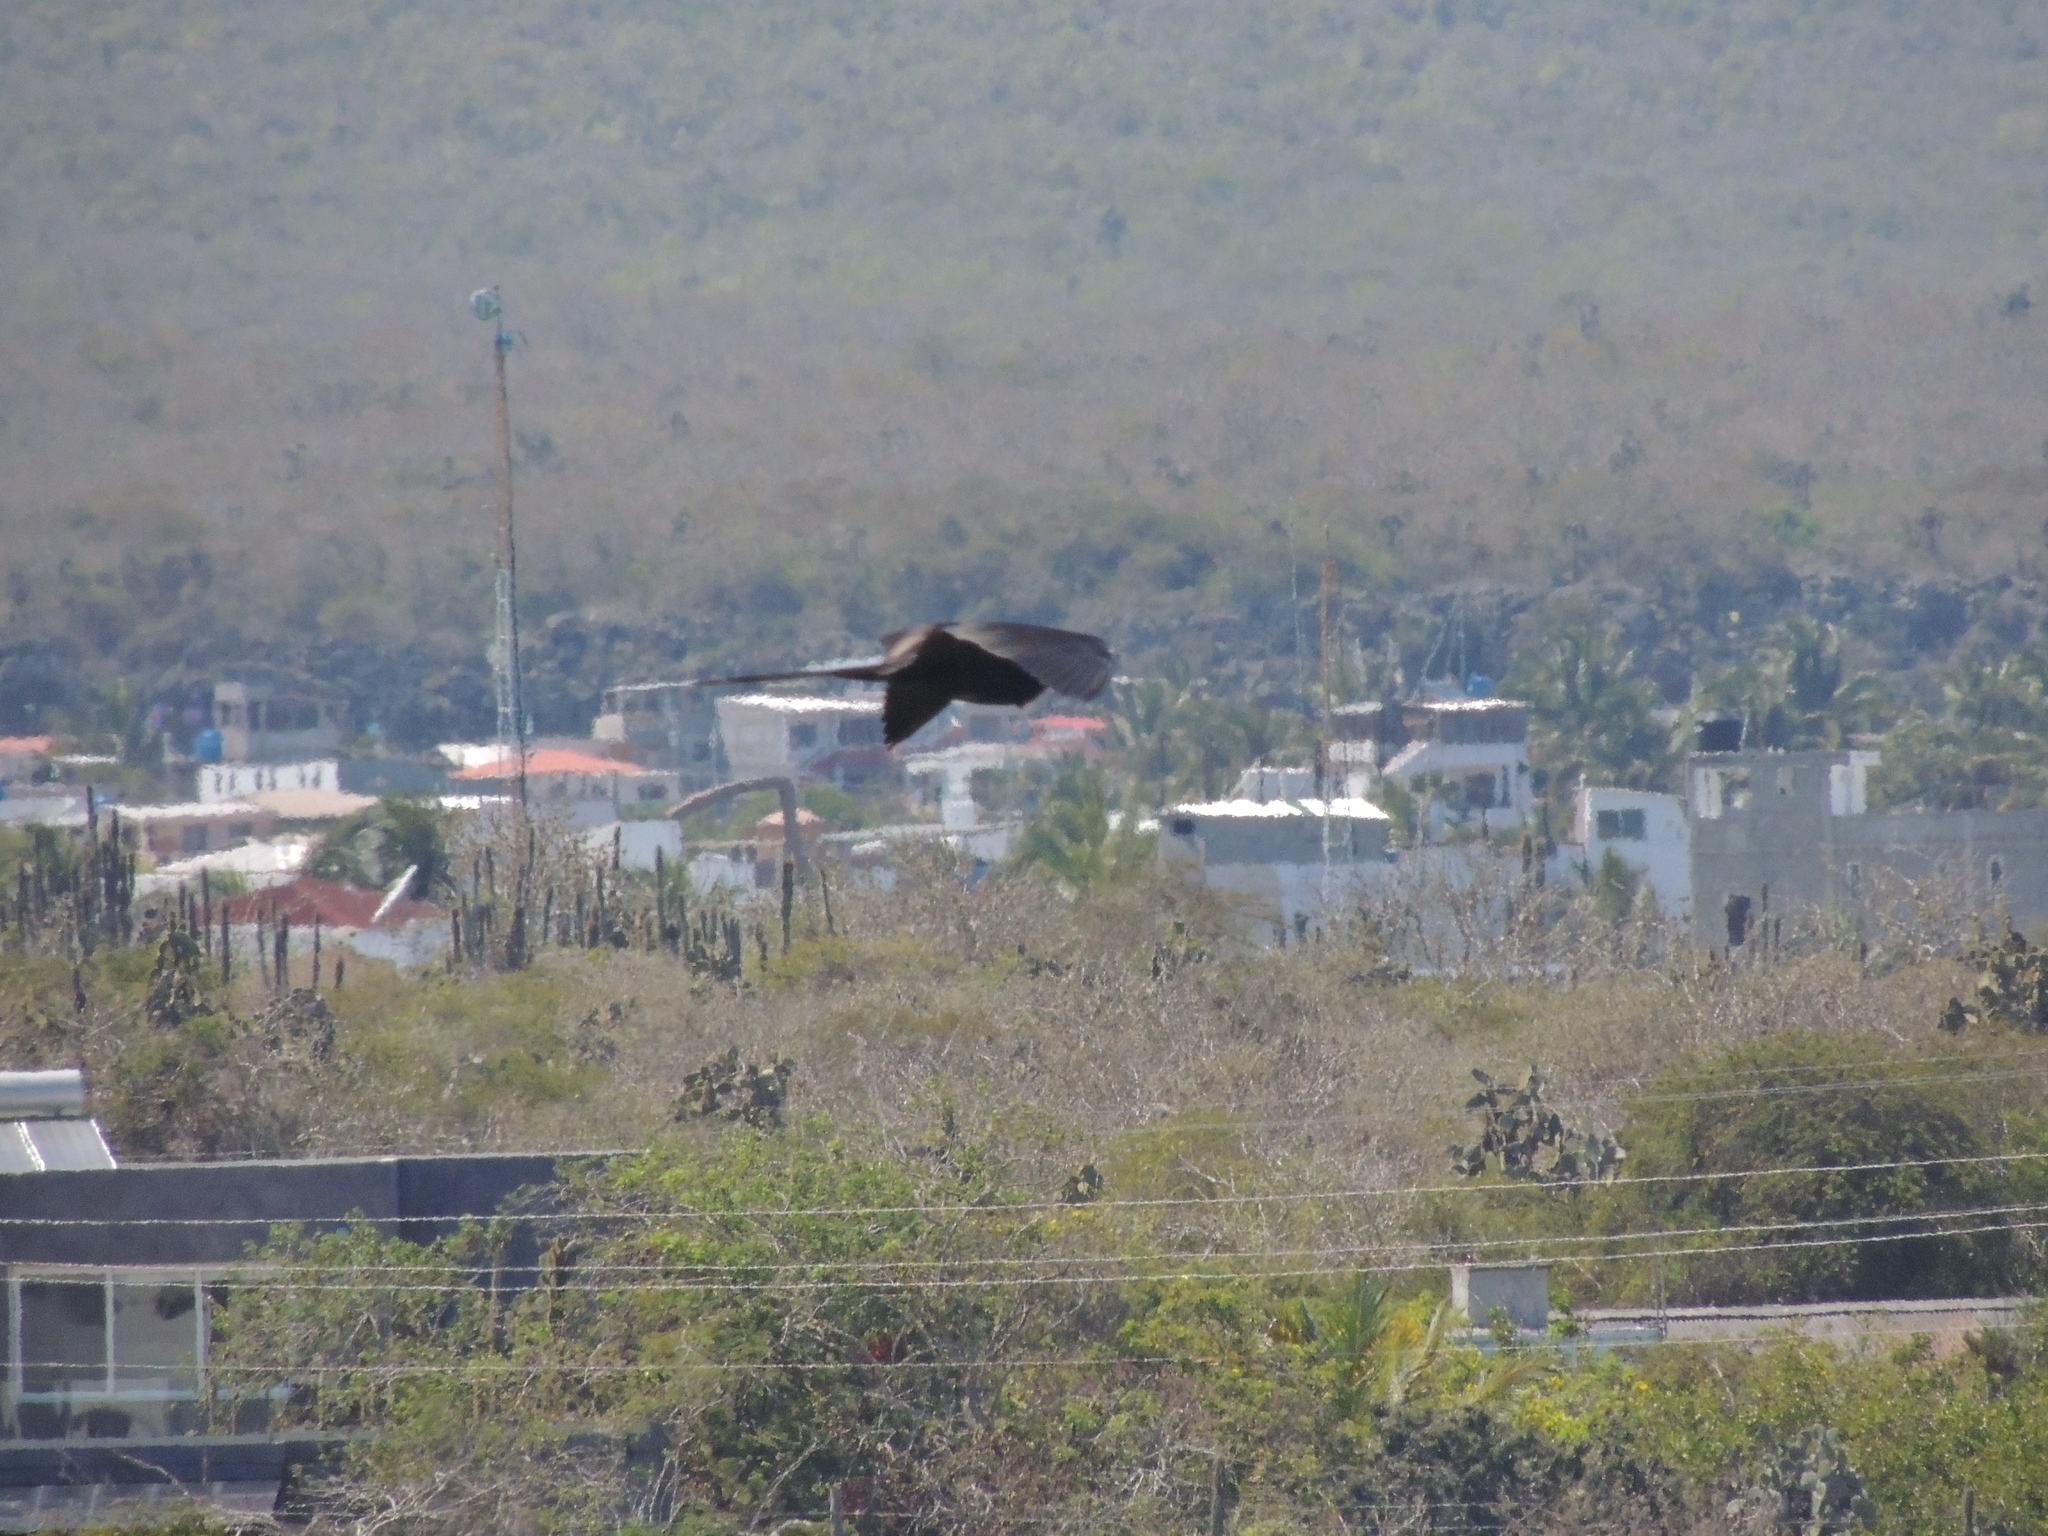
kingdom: Animalia
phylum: Chordata
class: Aves
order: Suliformes
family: Fregatidae
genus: Fregata
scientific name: Fregata magnificens
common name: Magnificent frigatebird
